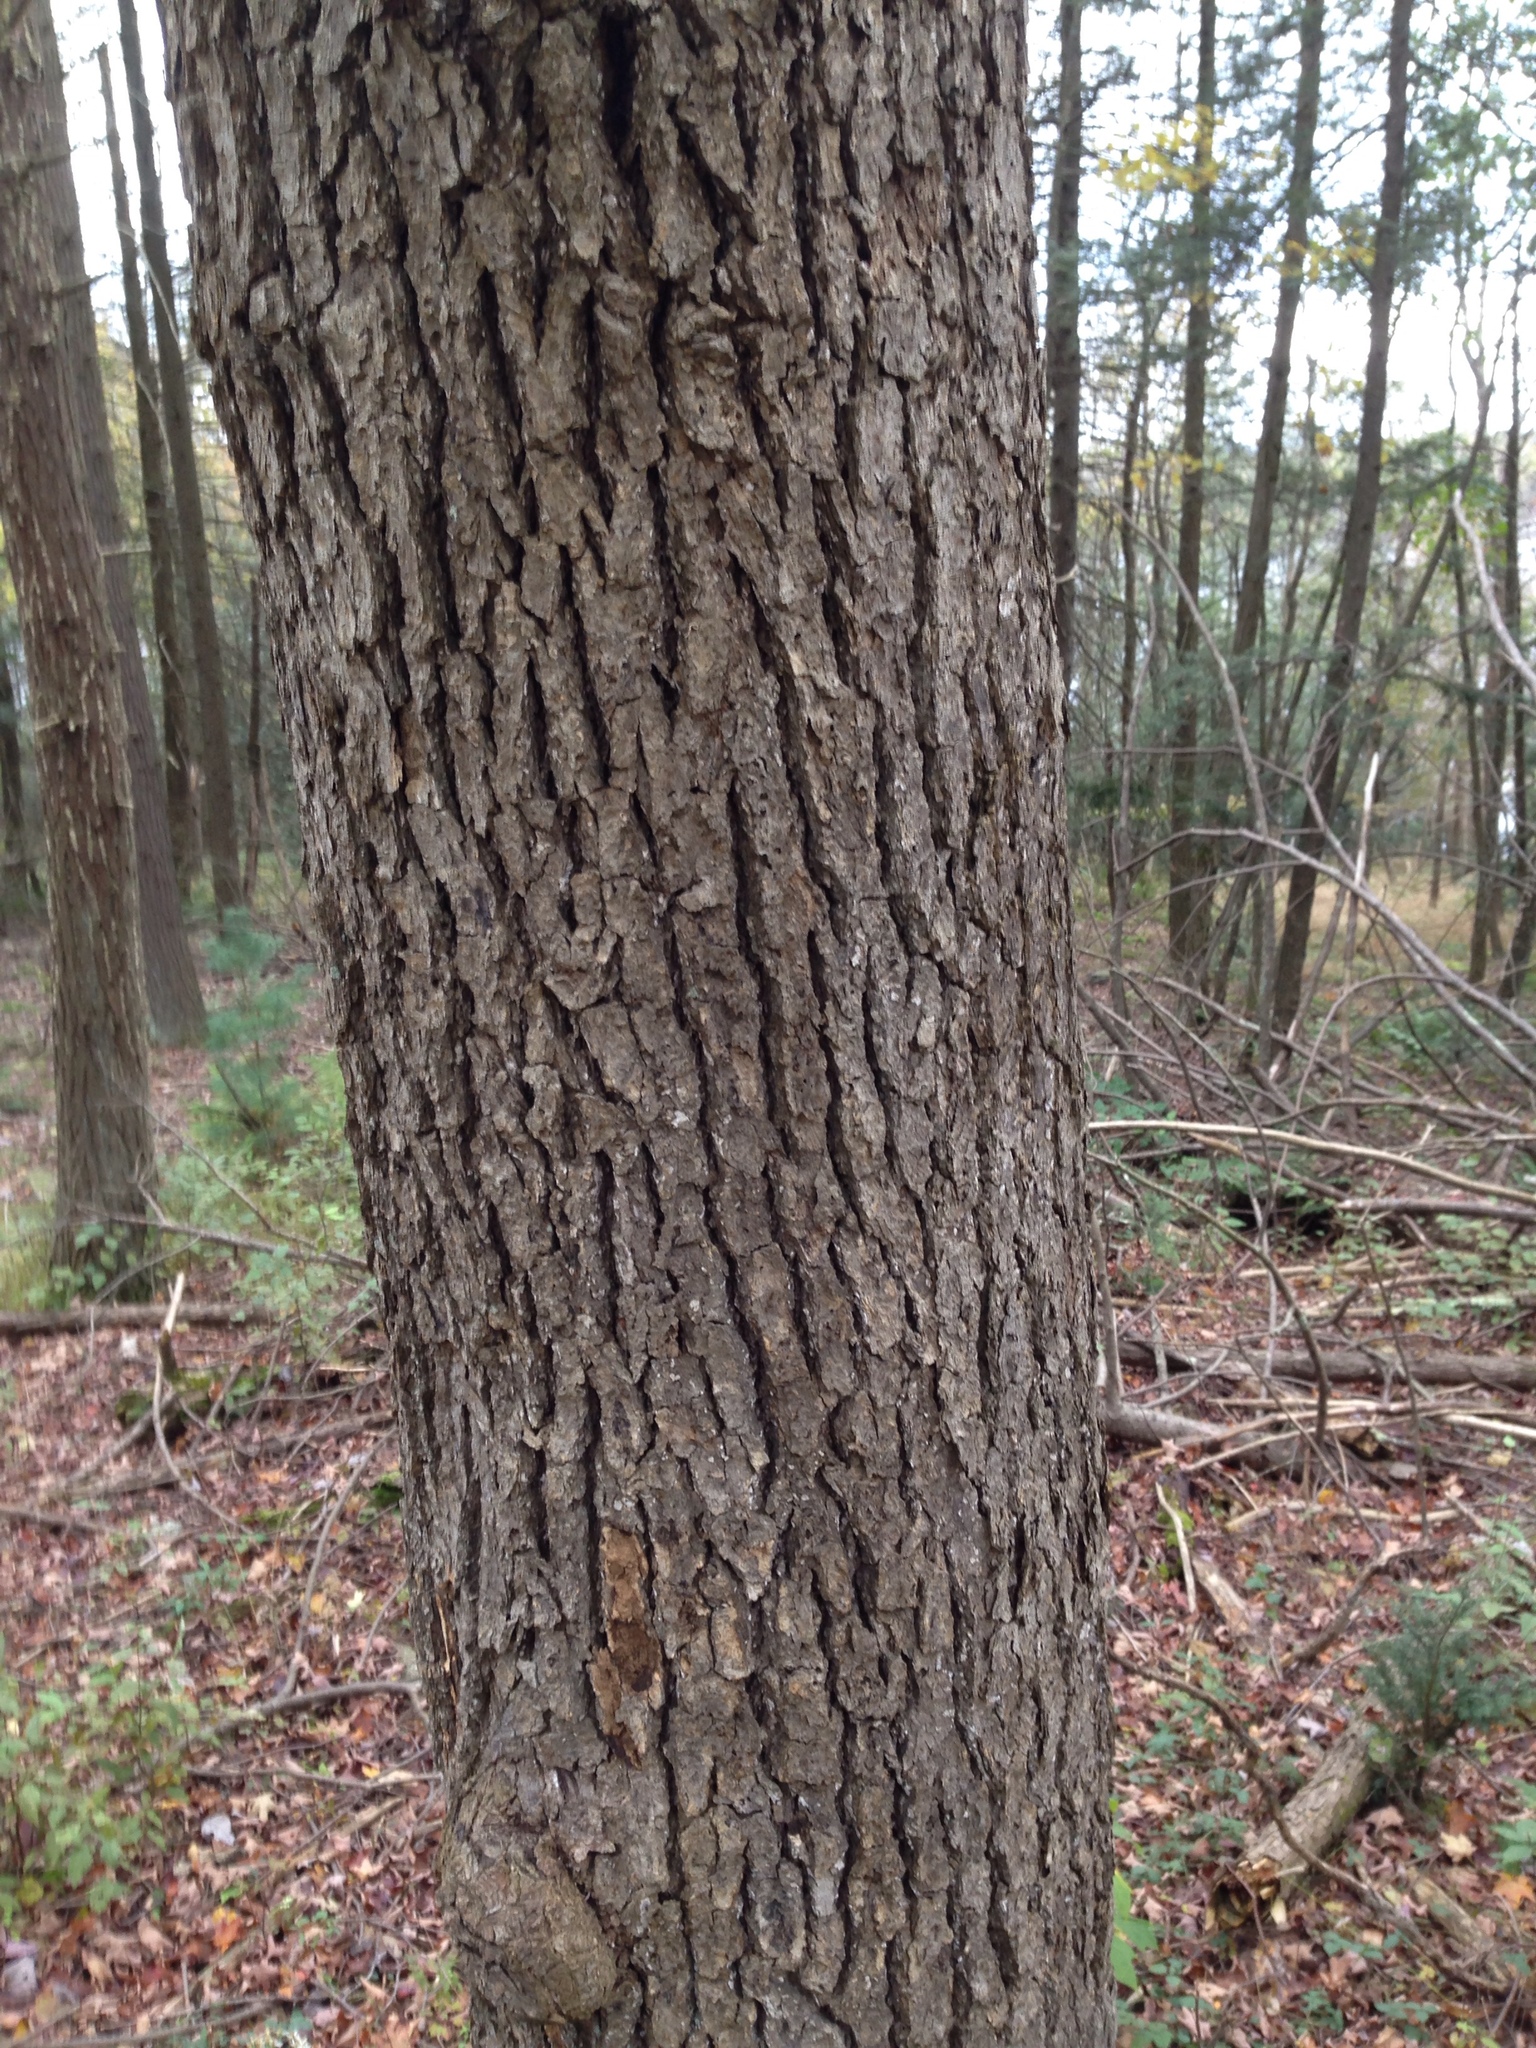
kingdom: Plantae
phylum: Tracheophyta
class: Magnoliopsida
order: Cornales
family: Nyssaceae
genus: Nyssa
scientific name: Nyssa sylvatica
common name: Black tupelo
